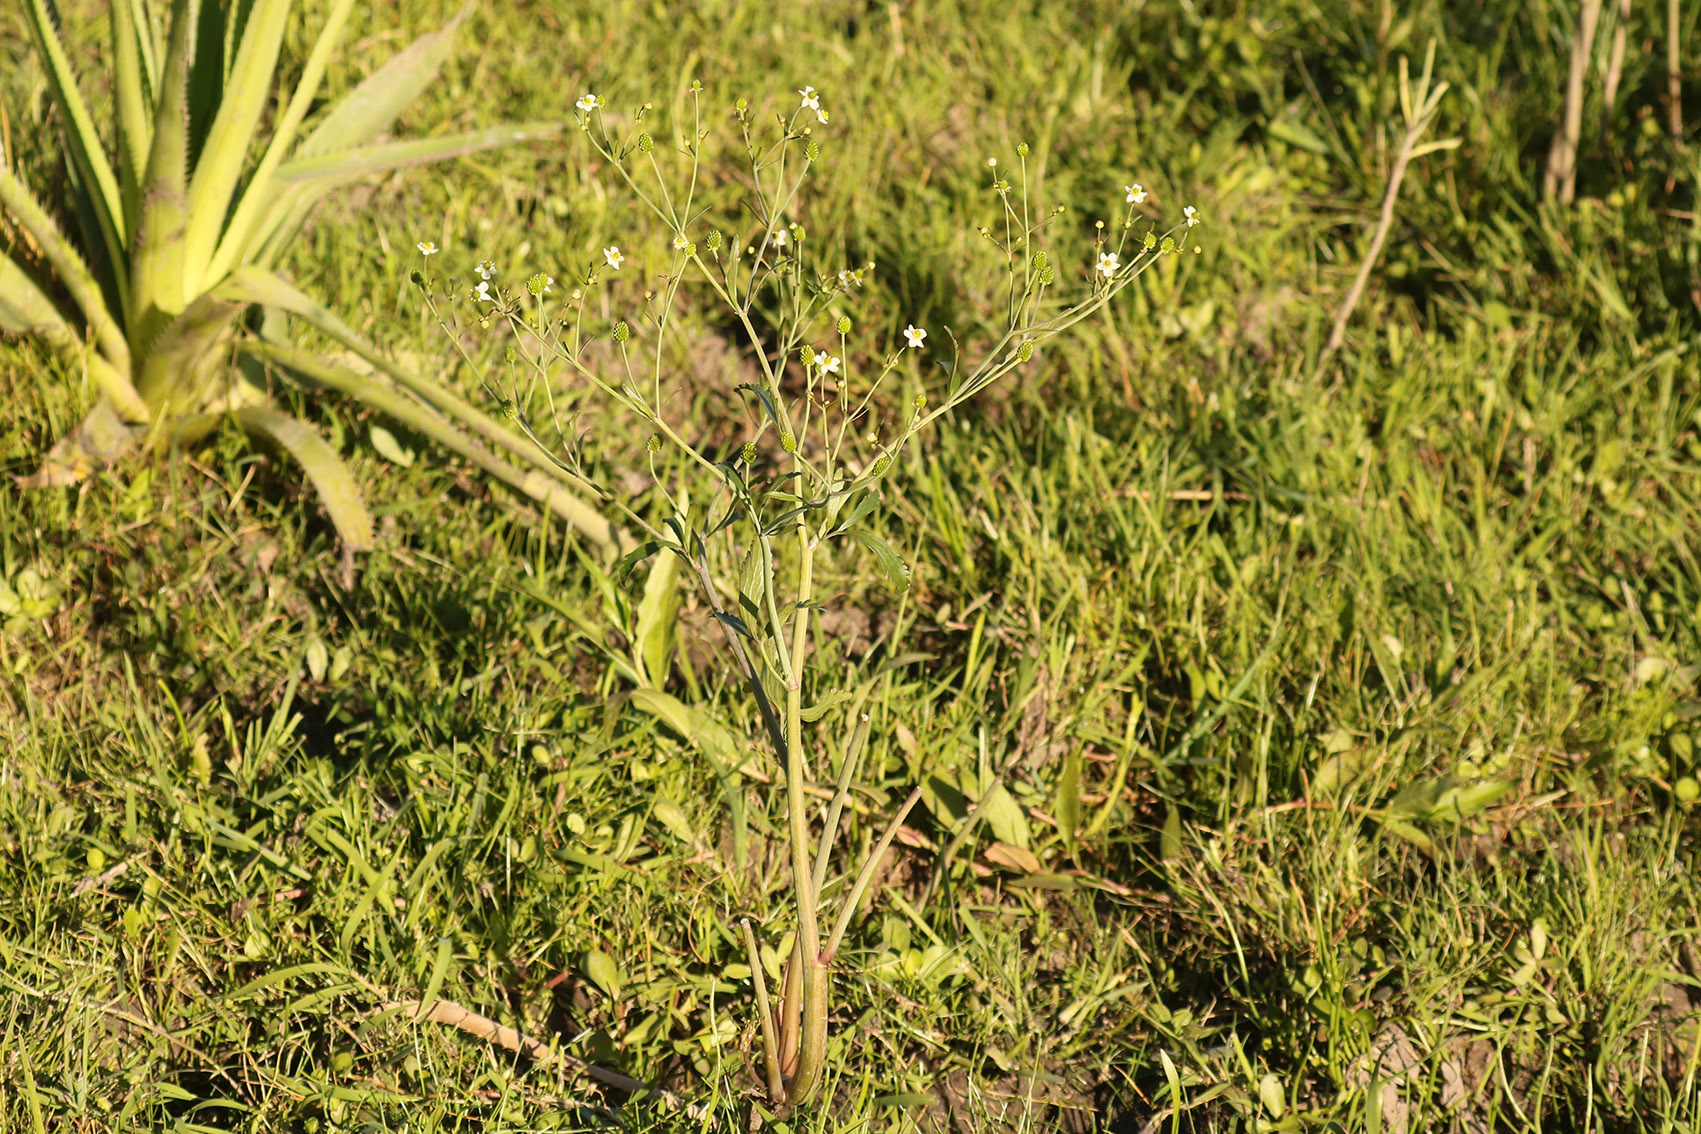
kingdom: Plantae
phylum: Tracheophyta
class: Magnoliopsida
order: Ranunculales
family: Ranunculaceae
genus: Ranunculus
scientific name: Ranunculus apiifolius
